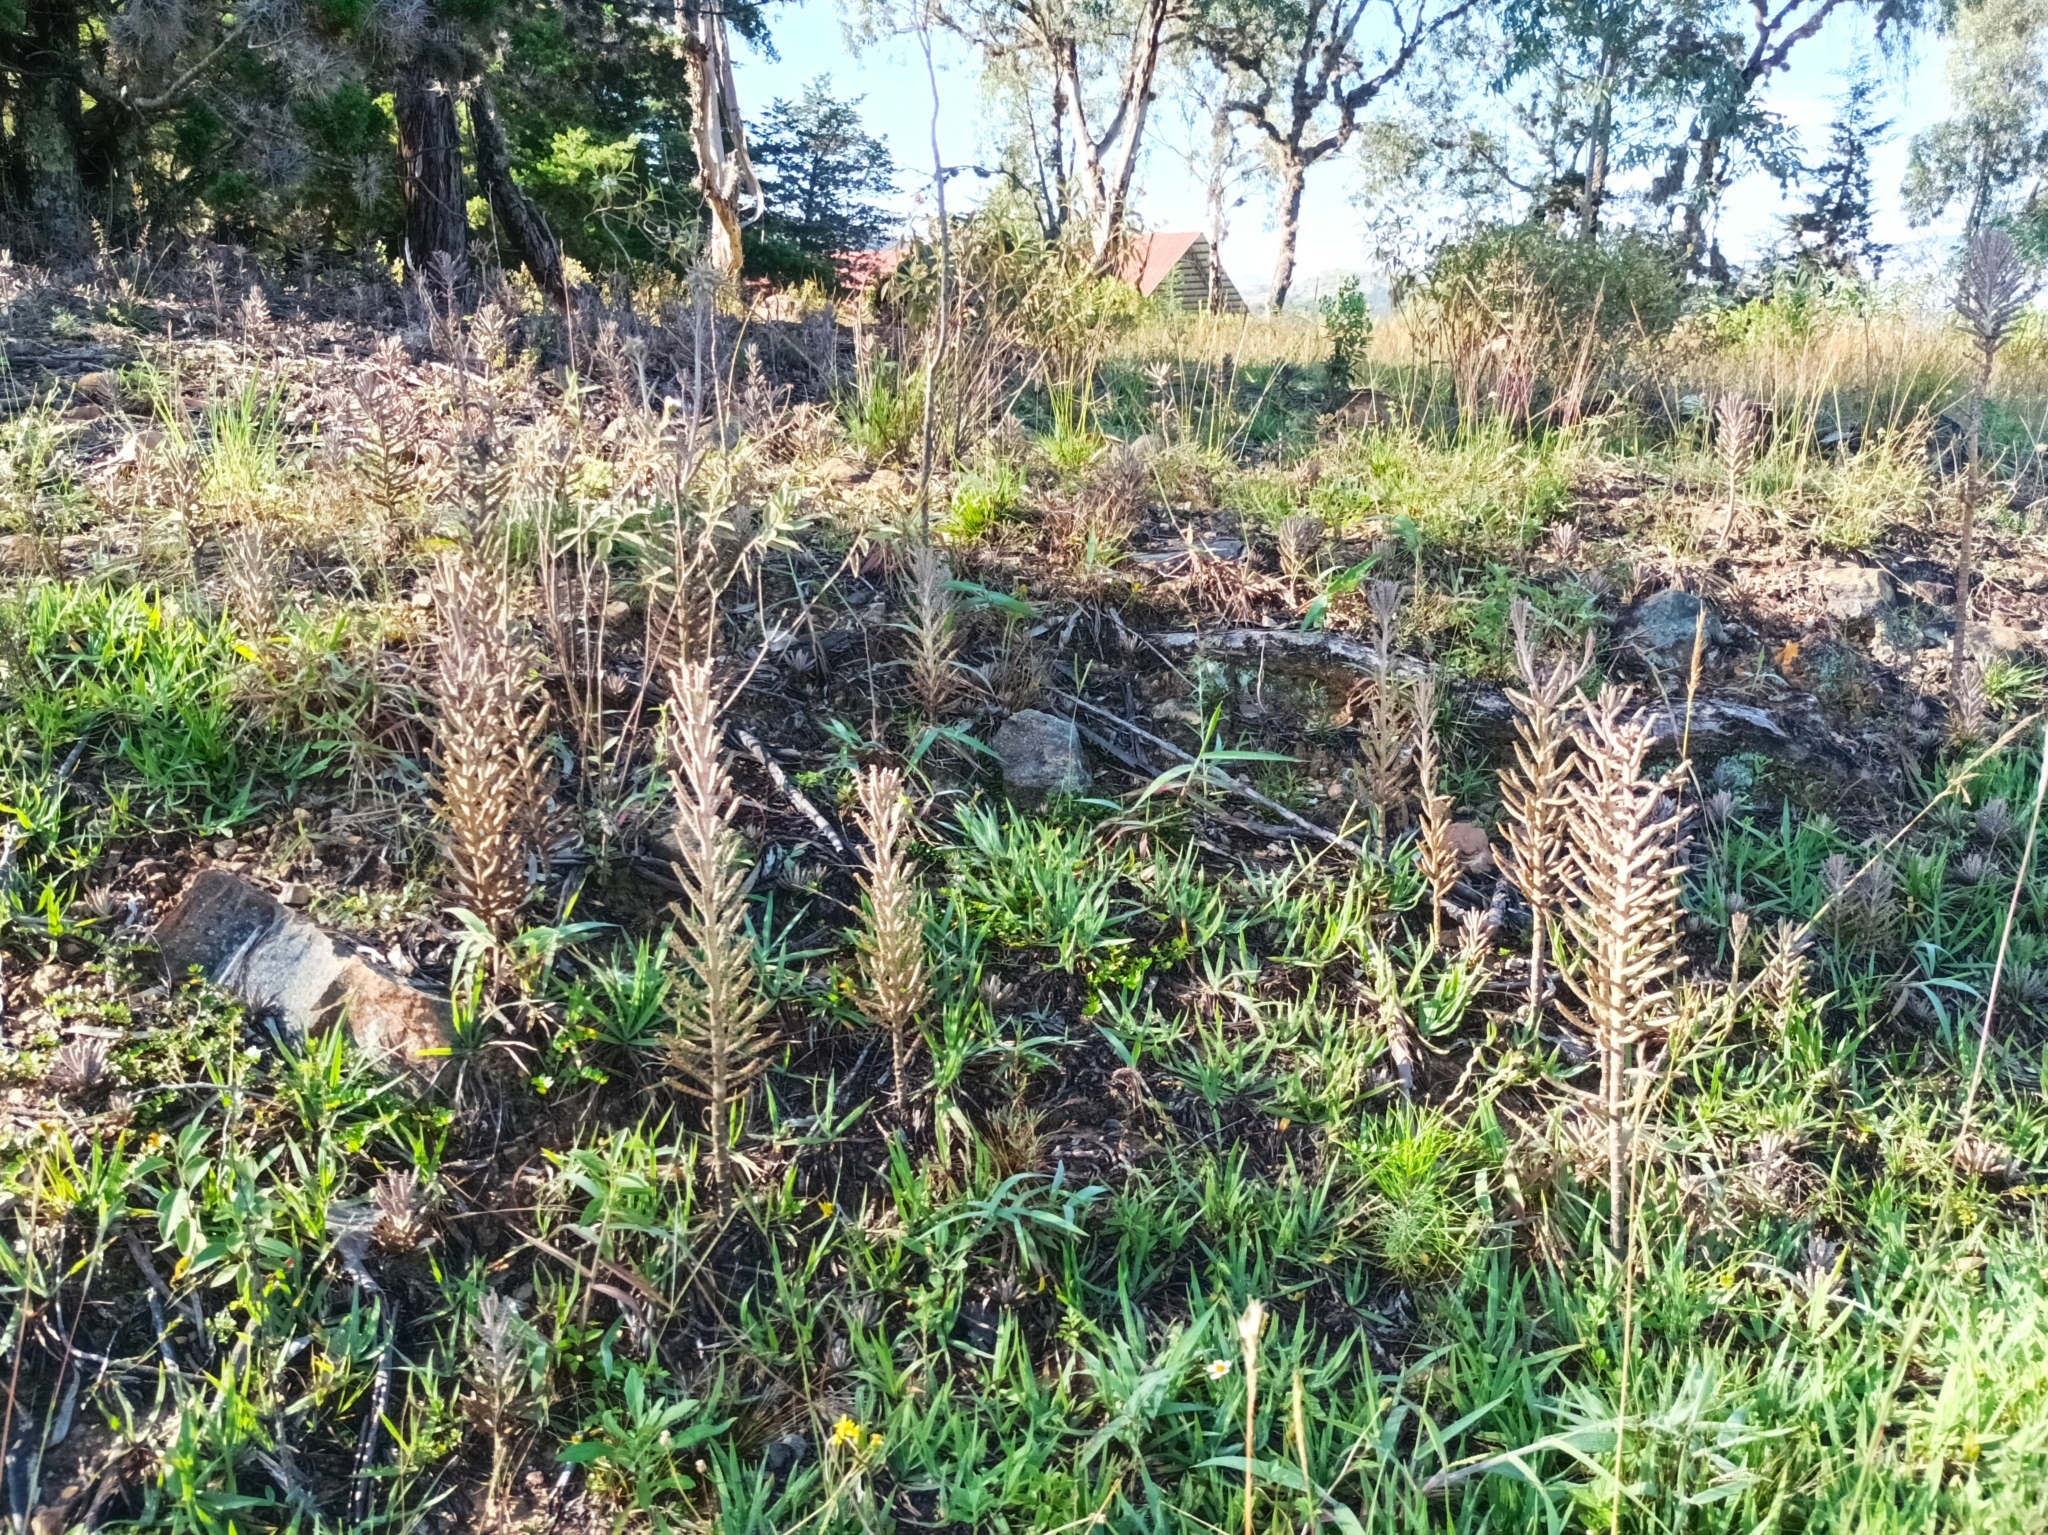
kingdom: Plantae
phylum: Tracheophyta
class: Magnoliopsida
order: Saxifragales
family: Crassulaceae
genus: Kalanchoe
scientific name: Kalanchoe delagoensis
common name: Chandelier plant
